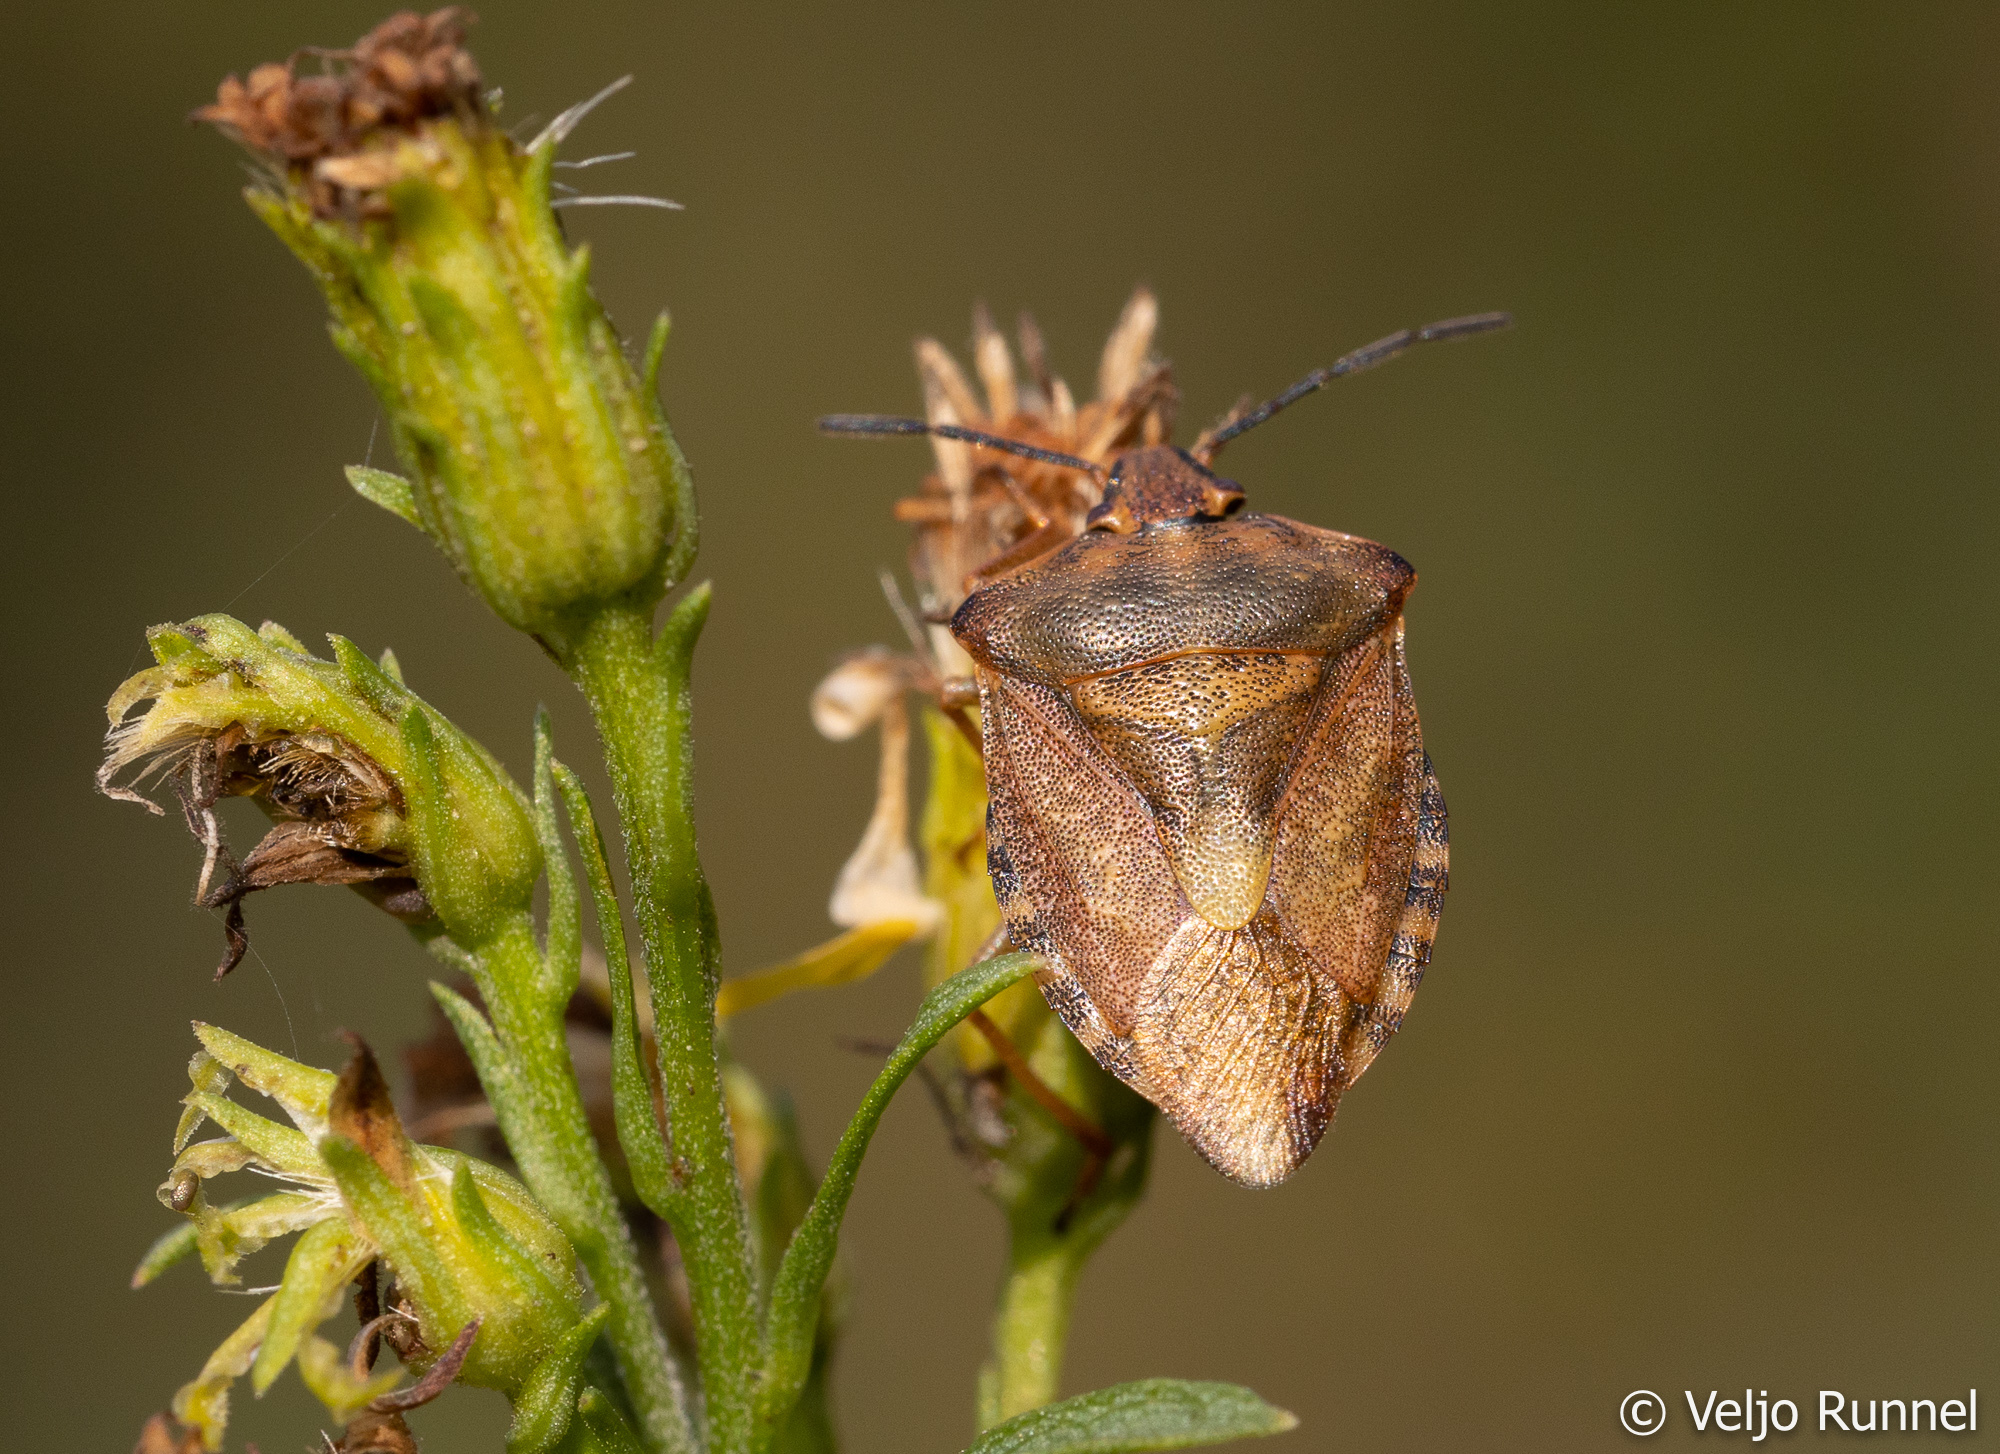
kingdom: Animalia
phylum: Arthropoda
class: Insecta
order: Hemiptera
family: Pentatomidae
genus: Carpocoris
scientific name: Carpocoris purpureipennis
